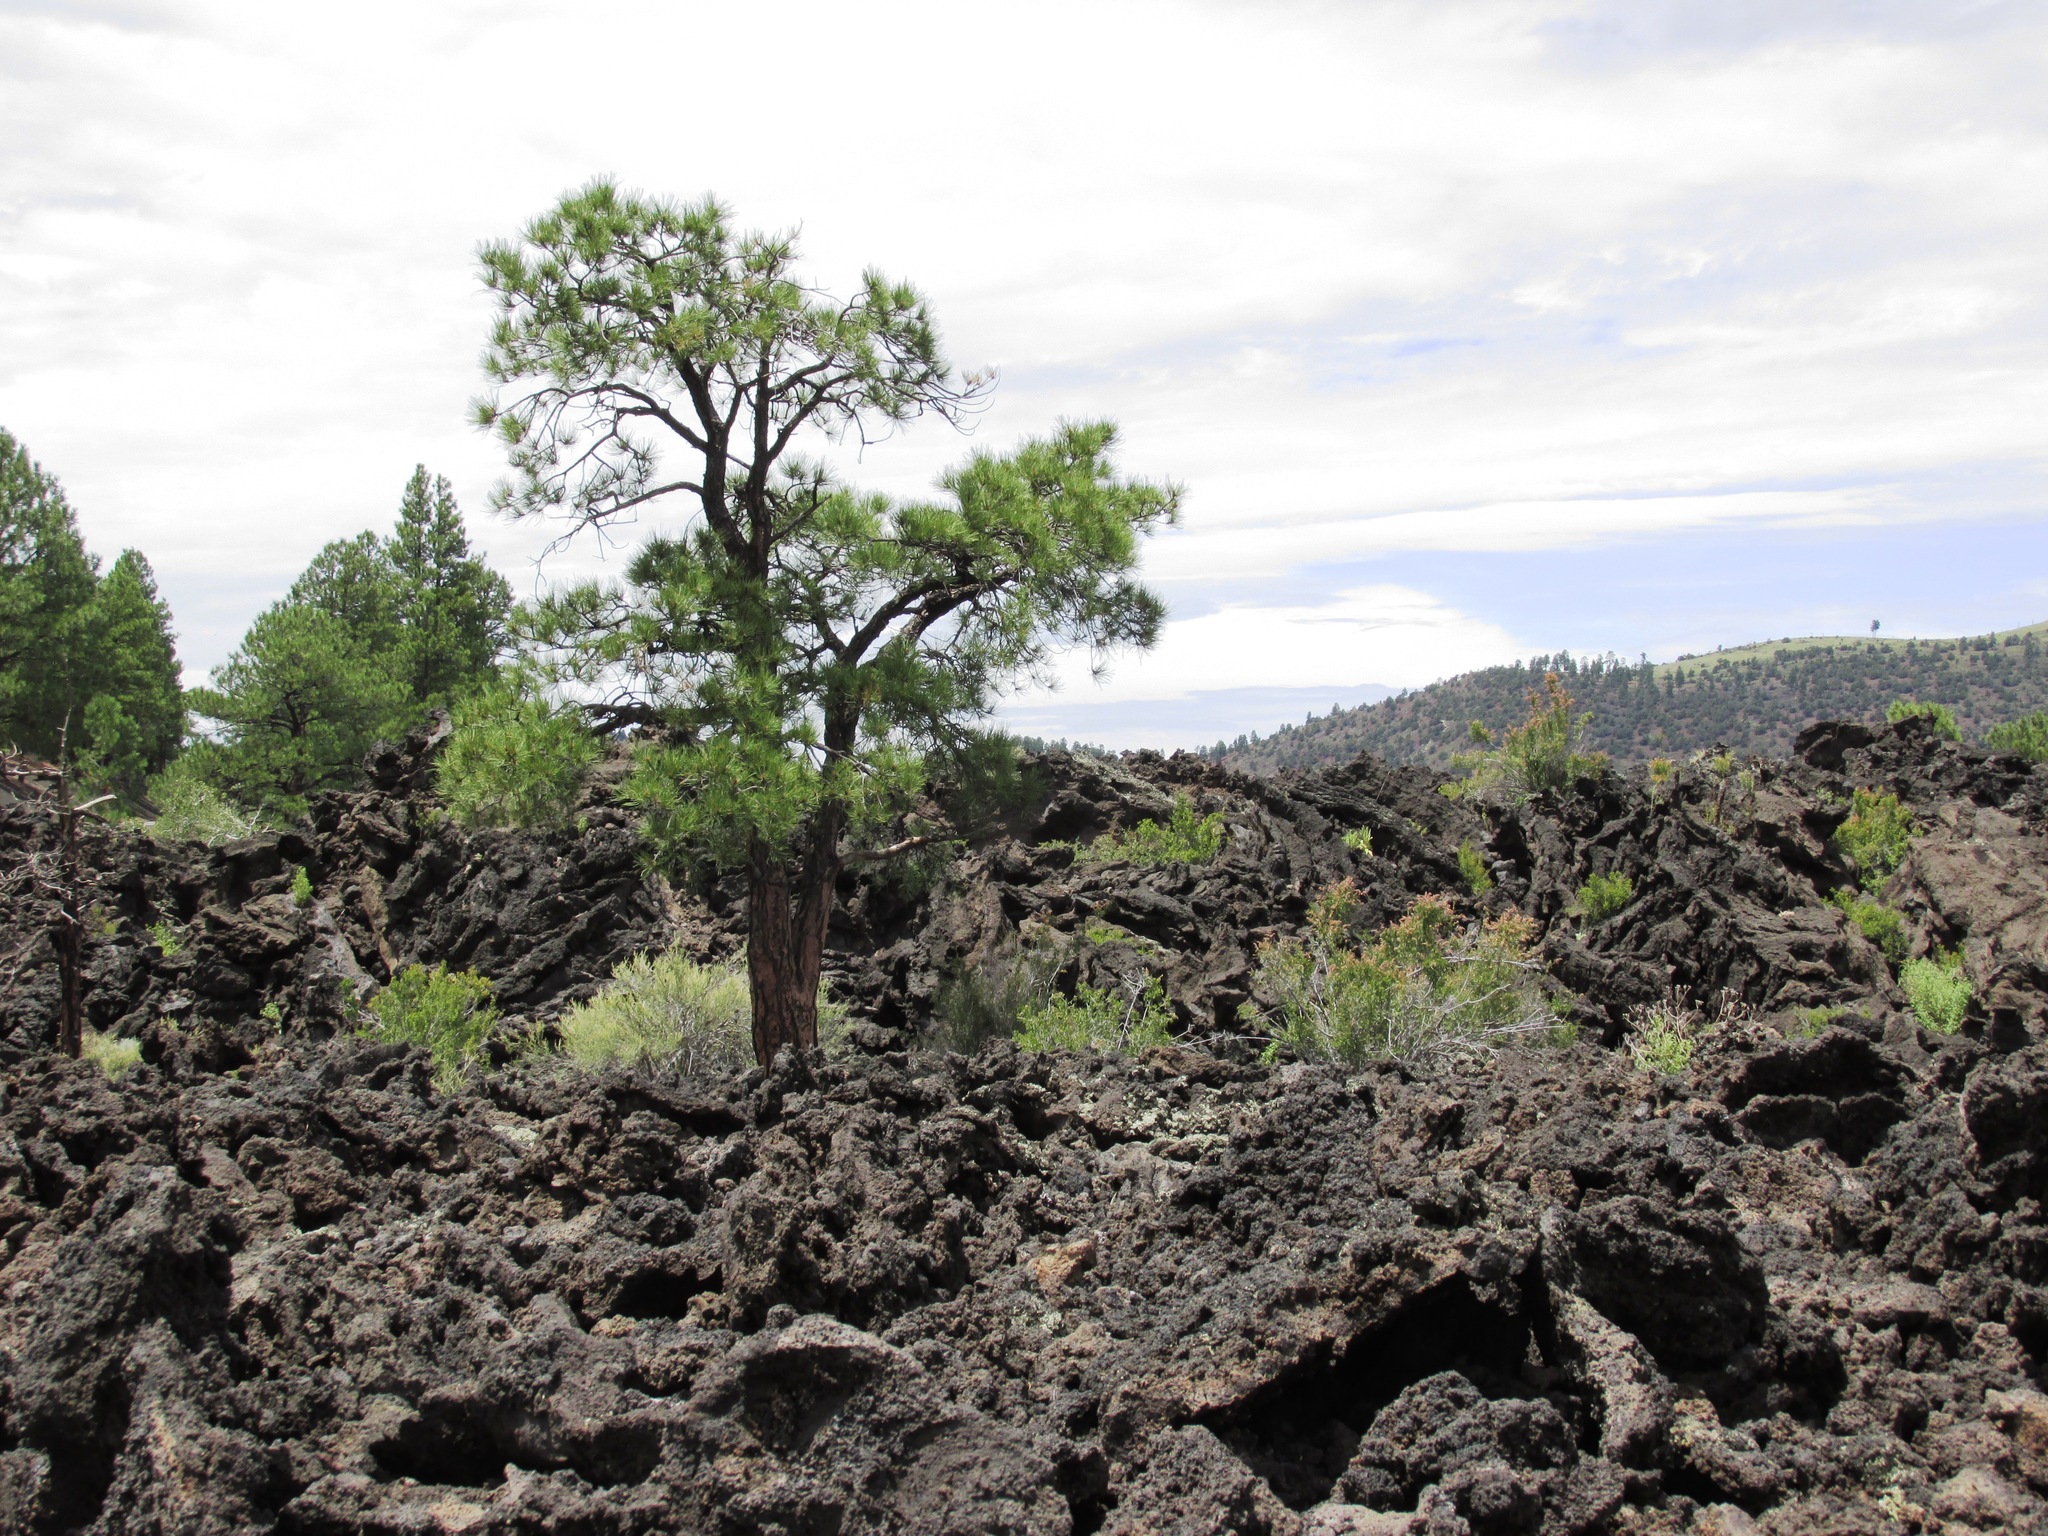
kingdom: Plantae
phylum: Tracheophyta
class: Pinopsida
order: Pinales
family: Pinaceae
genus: Pinus
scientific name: Pinus ponderosa
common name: Western yellow-pine
